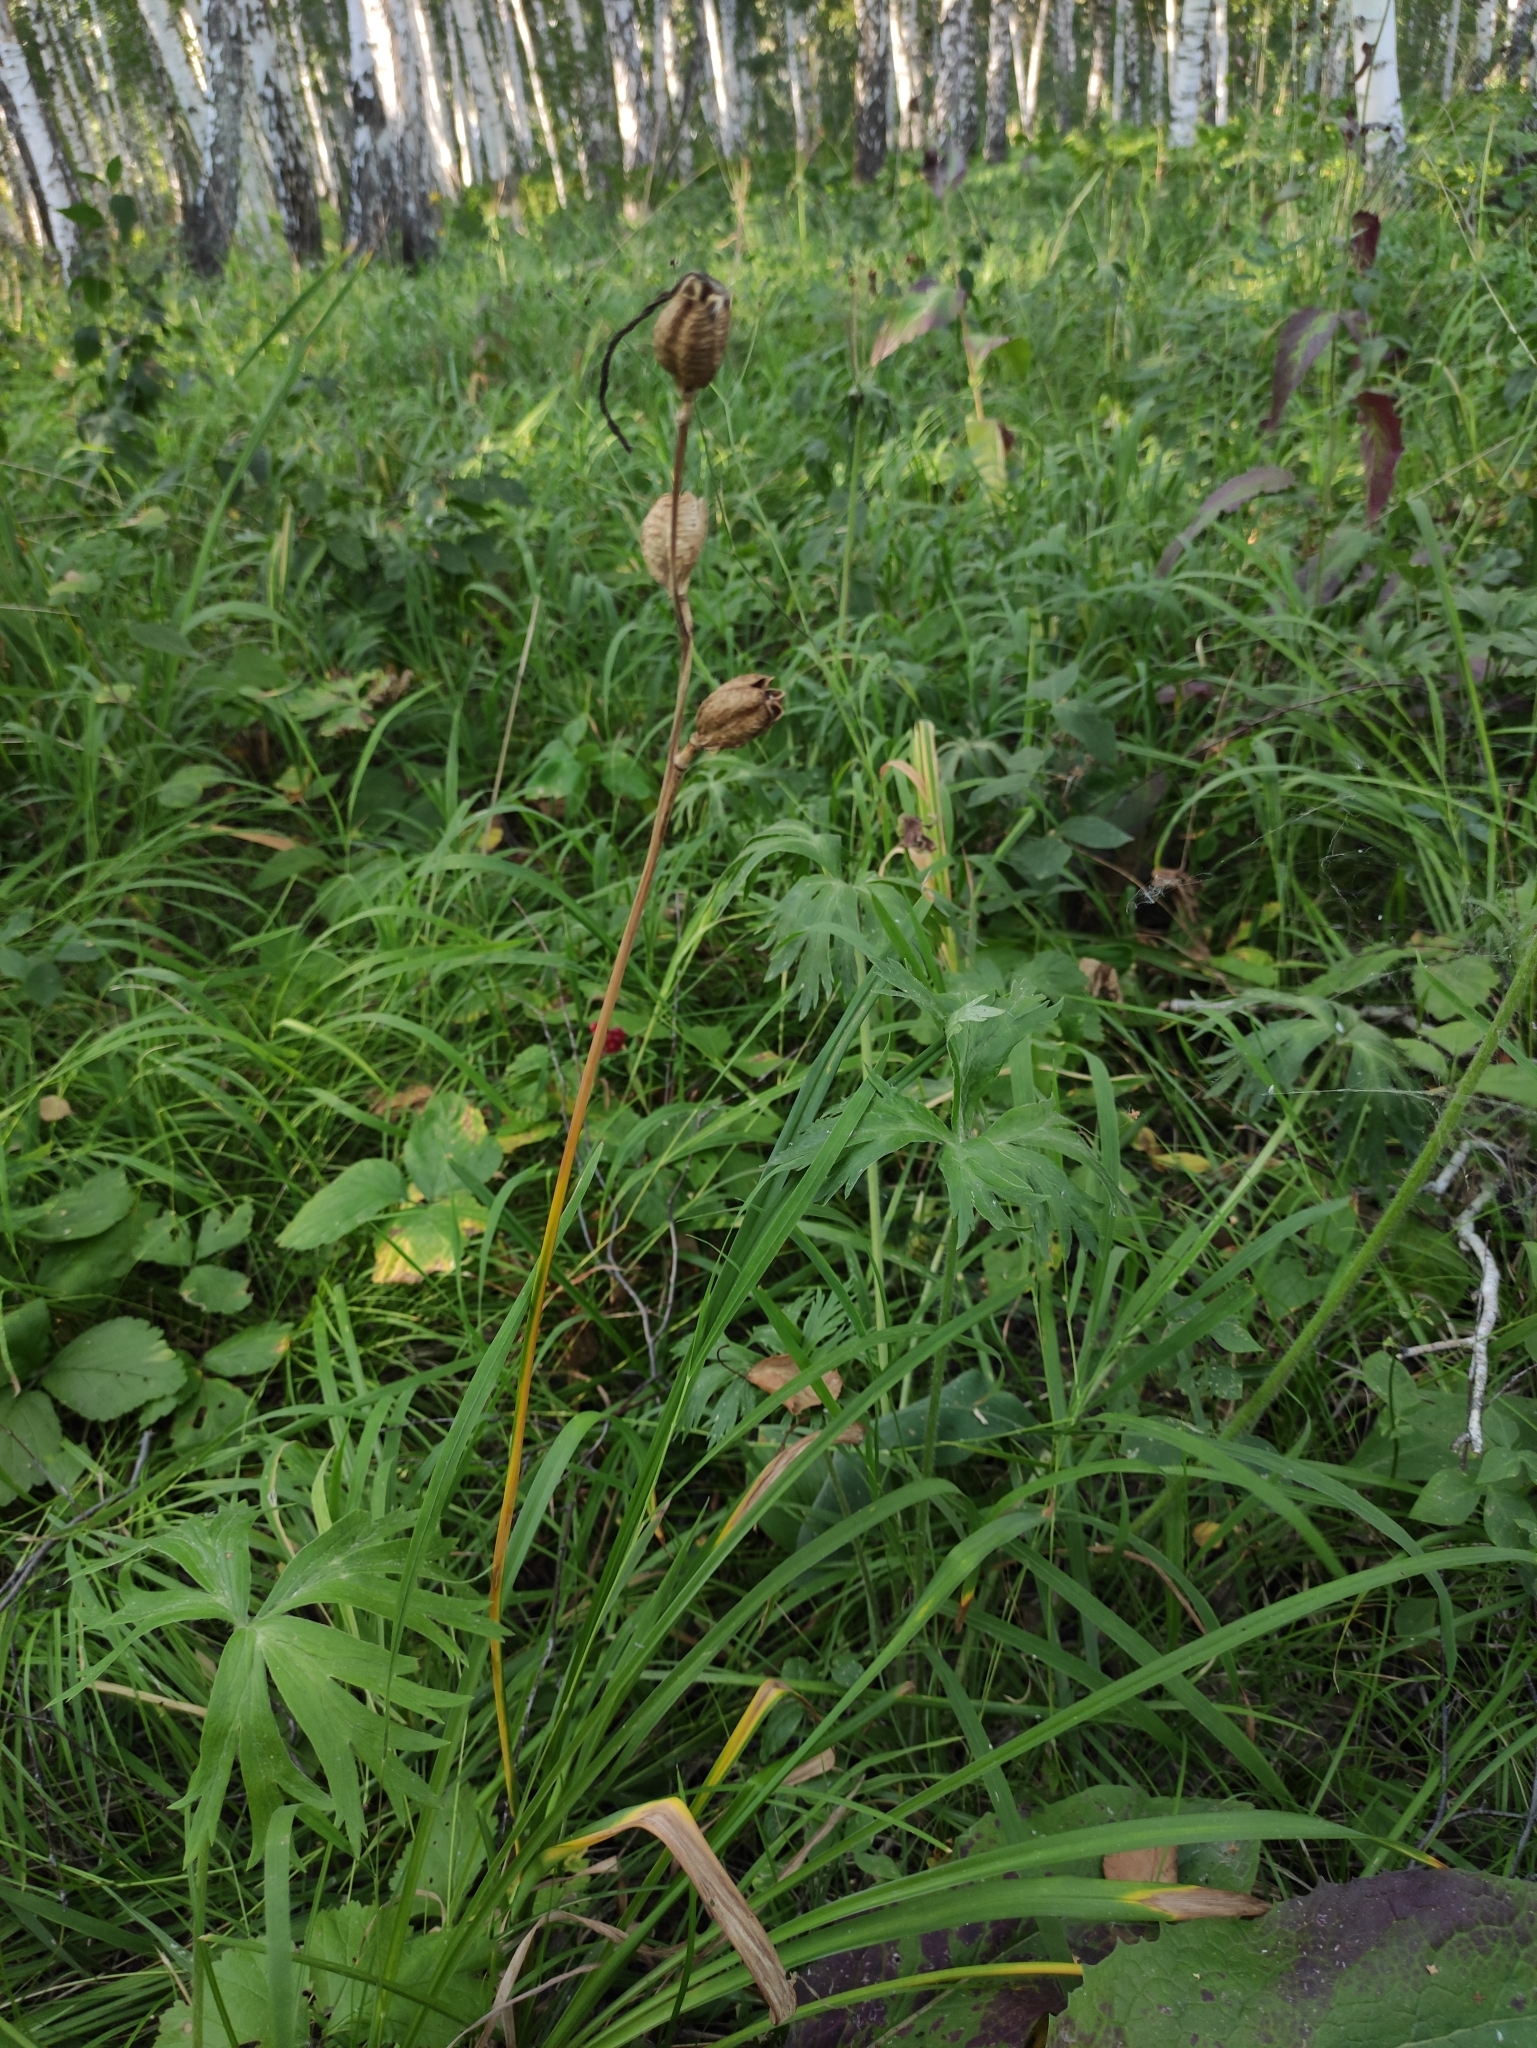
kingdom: Plantae
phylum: Tracheophyta
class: Liliopsida
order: Liliales
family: Liliaceae
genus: Lilium
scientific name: Lilium martagon
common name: Martagon lily
